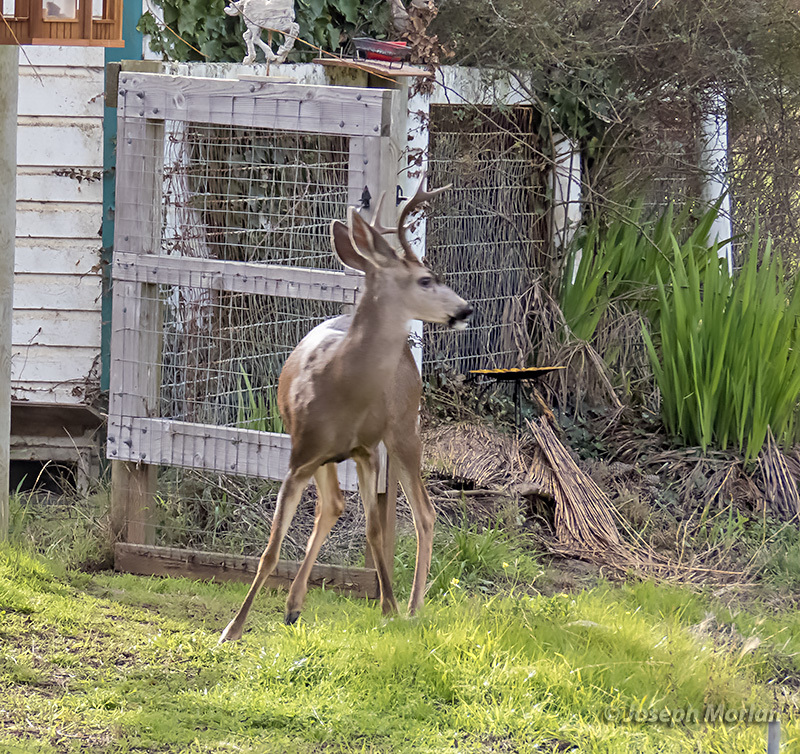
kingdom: Animalia
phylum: Chordata
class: Mammalia
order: Artiodactyla
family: Cervidae
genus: Odocoileus
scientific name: Odocoileus hemionus
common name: Mule deer
